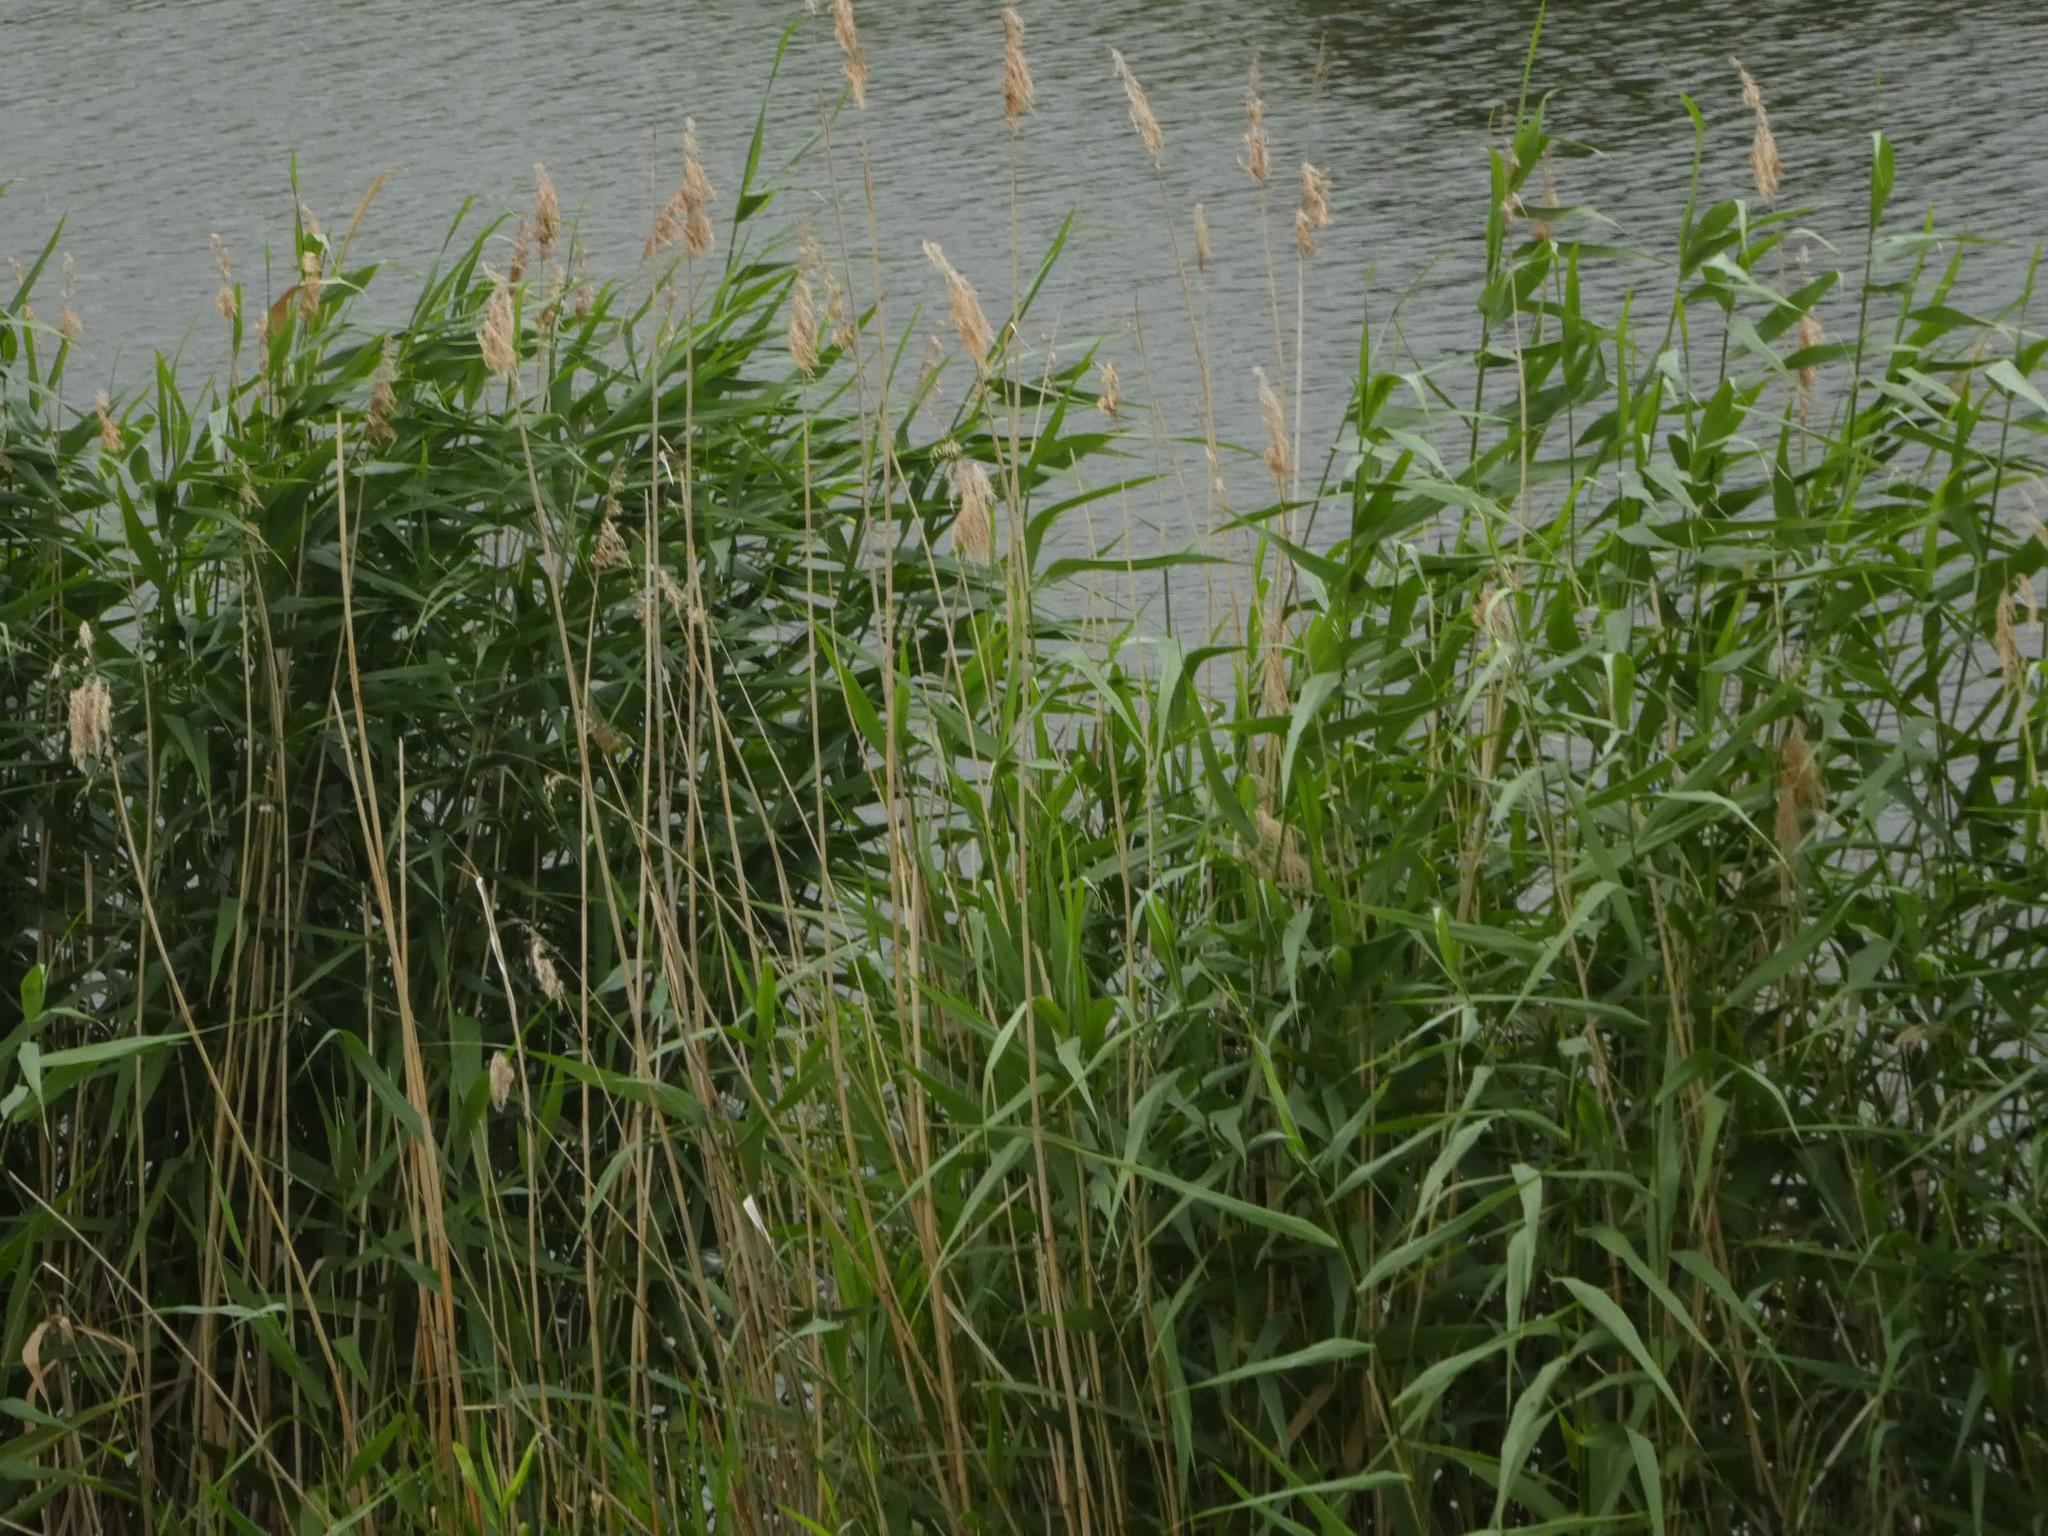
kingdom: Plantae
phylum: Tracheophyta
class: Liliopsida
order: Poales
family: Poaceae
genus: Phragmites
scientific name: Phragmites australis
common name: Common reed
